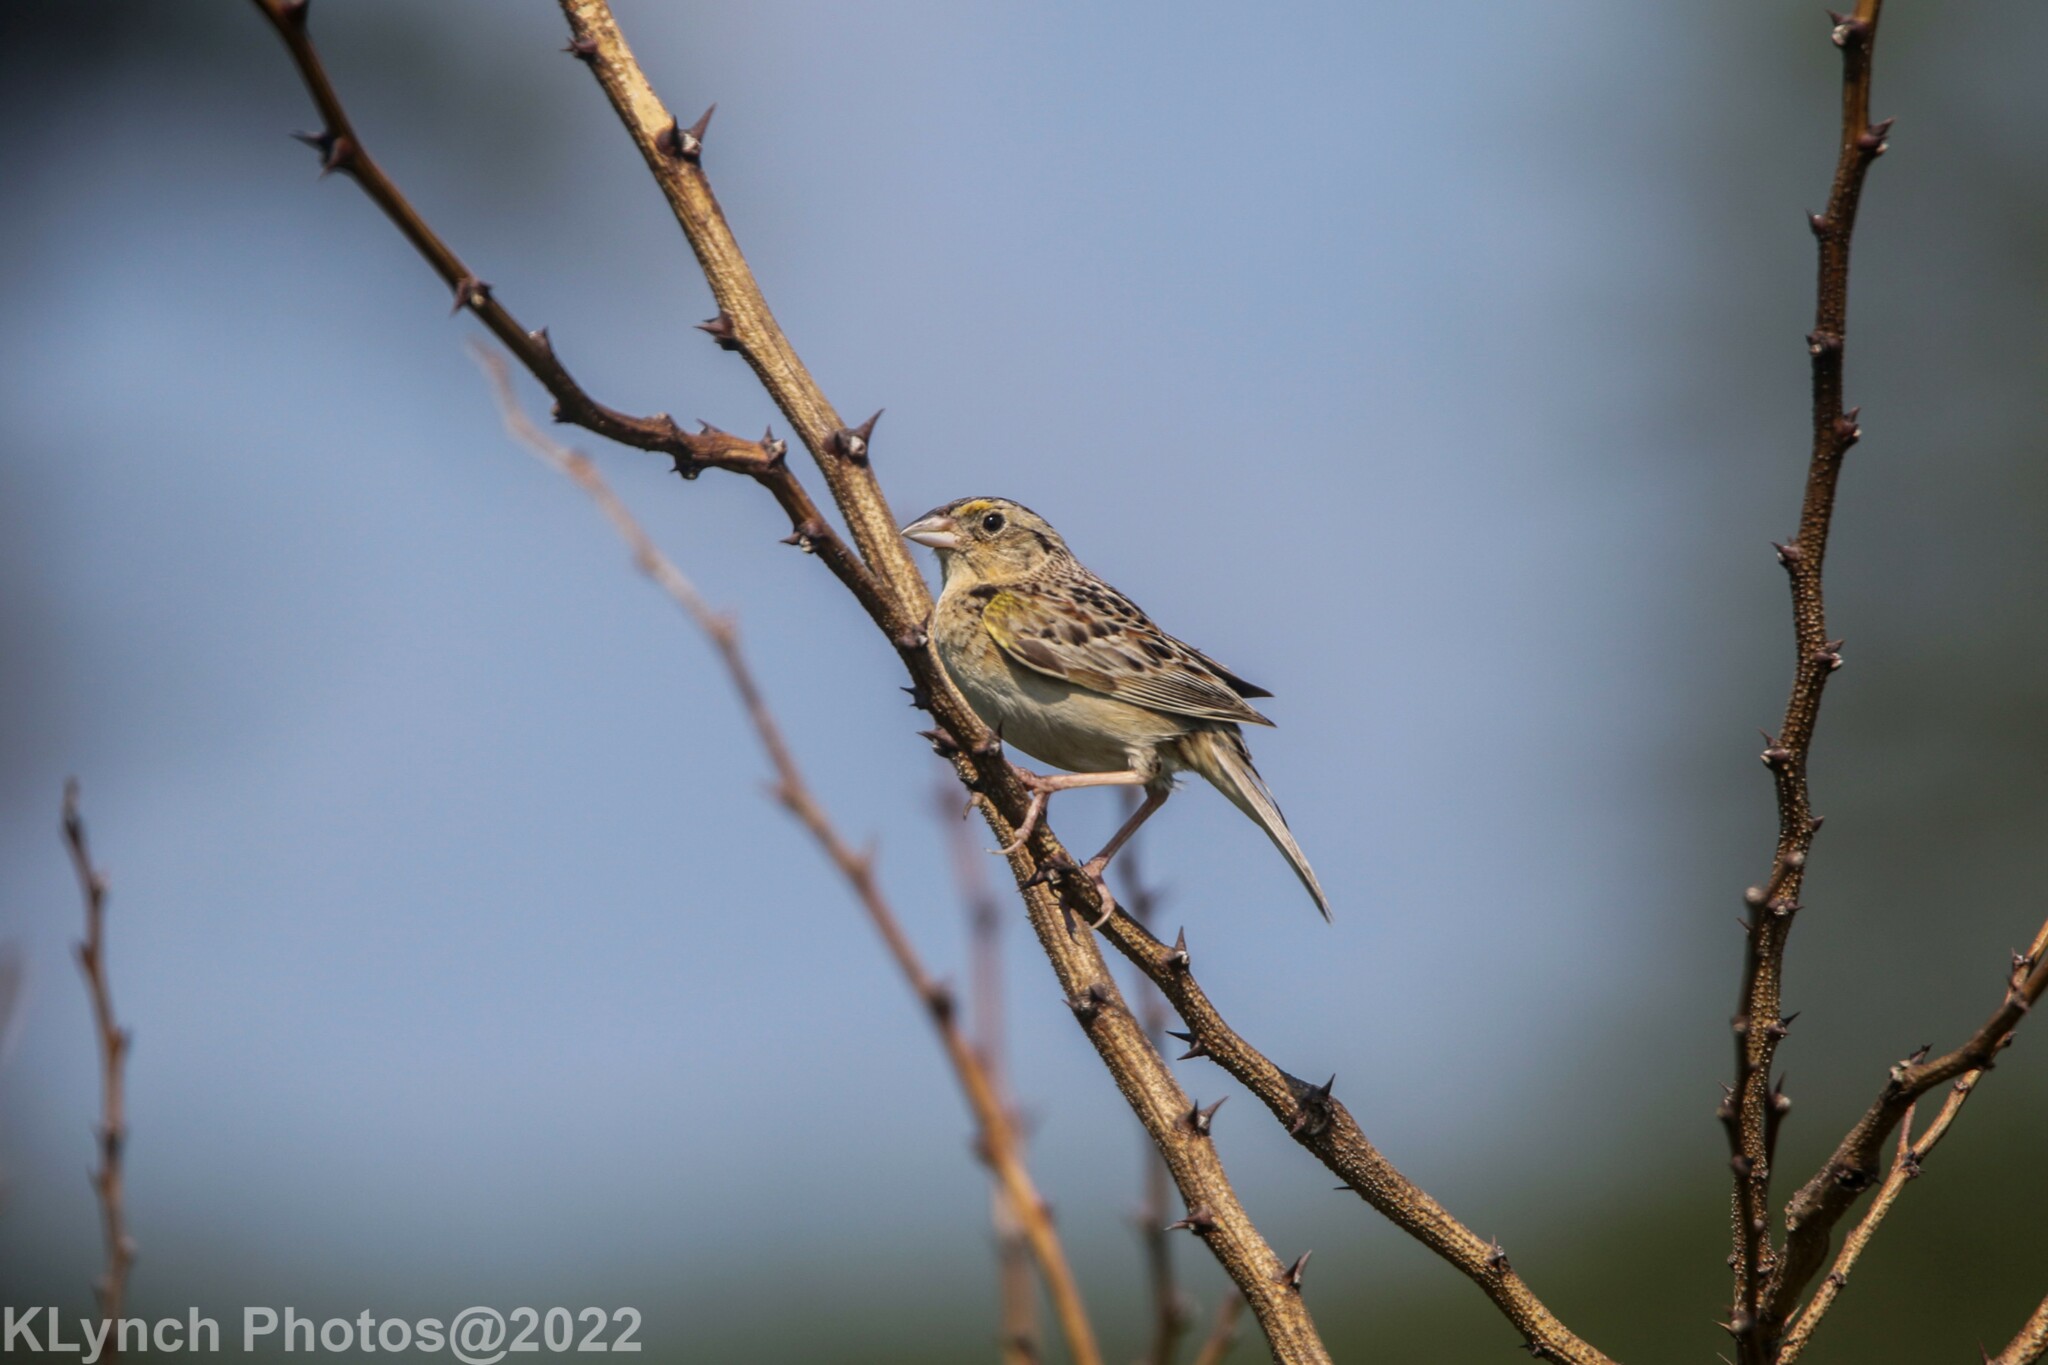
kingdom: Animalia
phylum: Chordata
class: Aves
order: Passeriformes
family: Passerellidae
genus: Ammodramus
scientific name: Ammodramus savannarum
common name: Grasshopper sparrow
